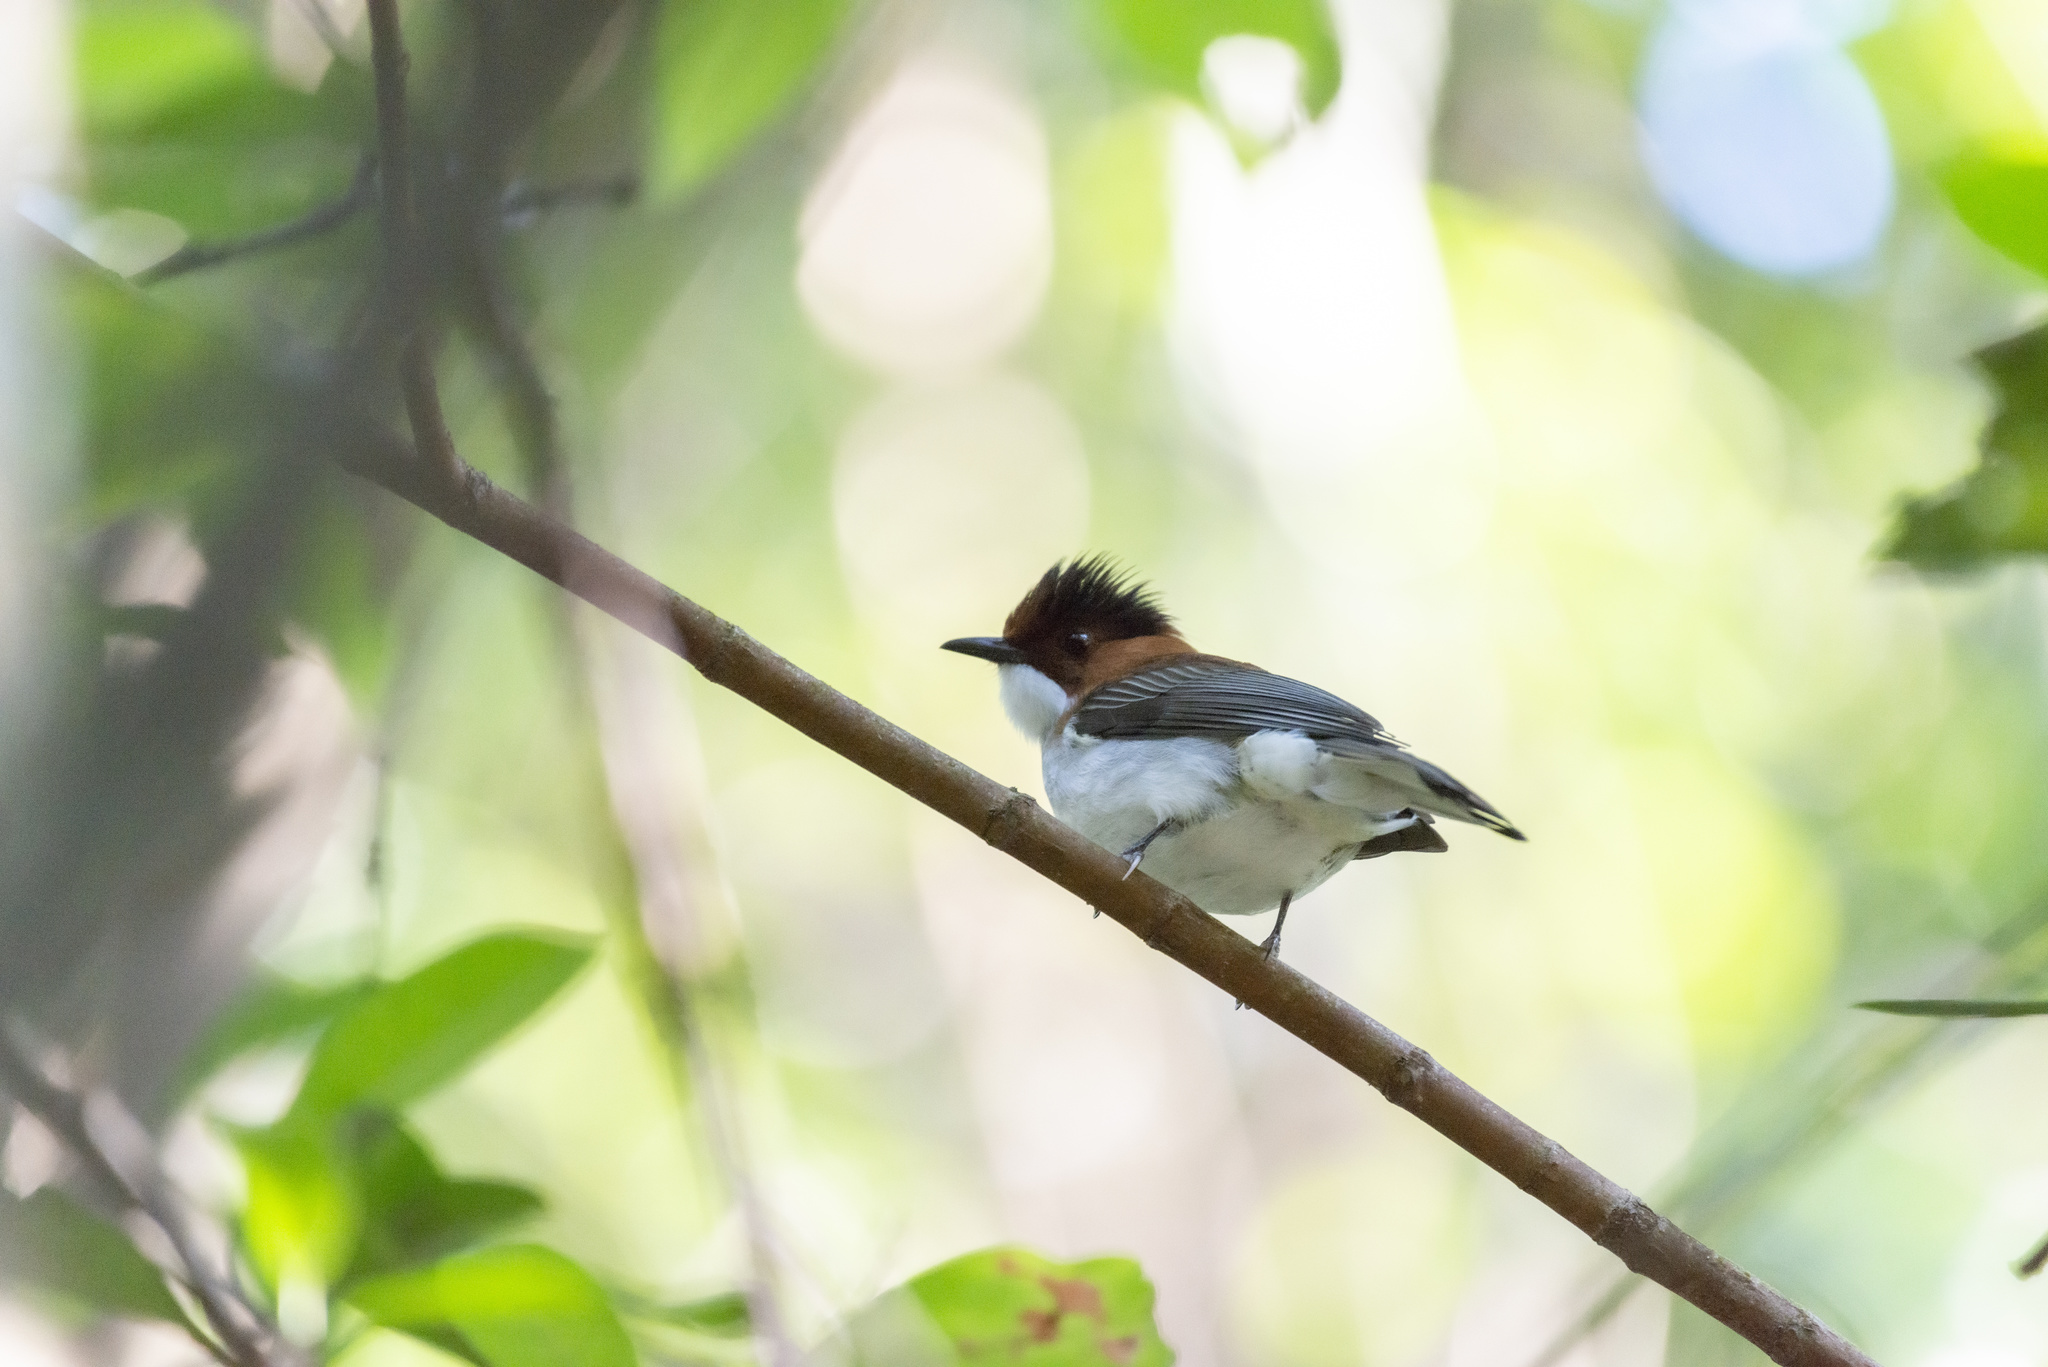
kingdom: Animalia
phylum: Chordata
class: Aves
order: Passeriformes
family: Pycnonotidae
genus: Hemixos
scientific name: Hemixos castanonotus
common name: Chestnut bulbul
